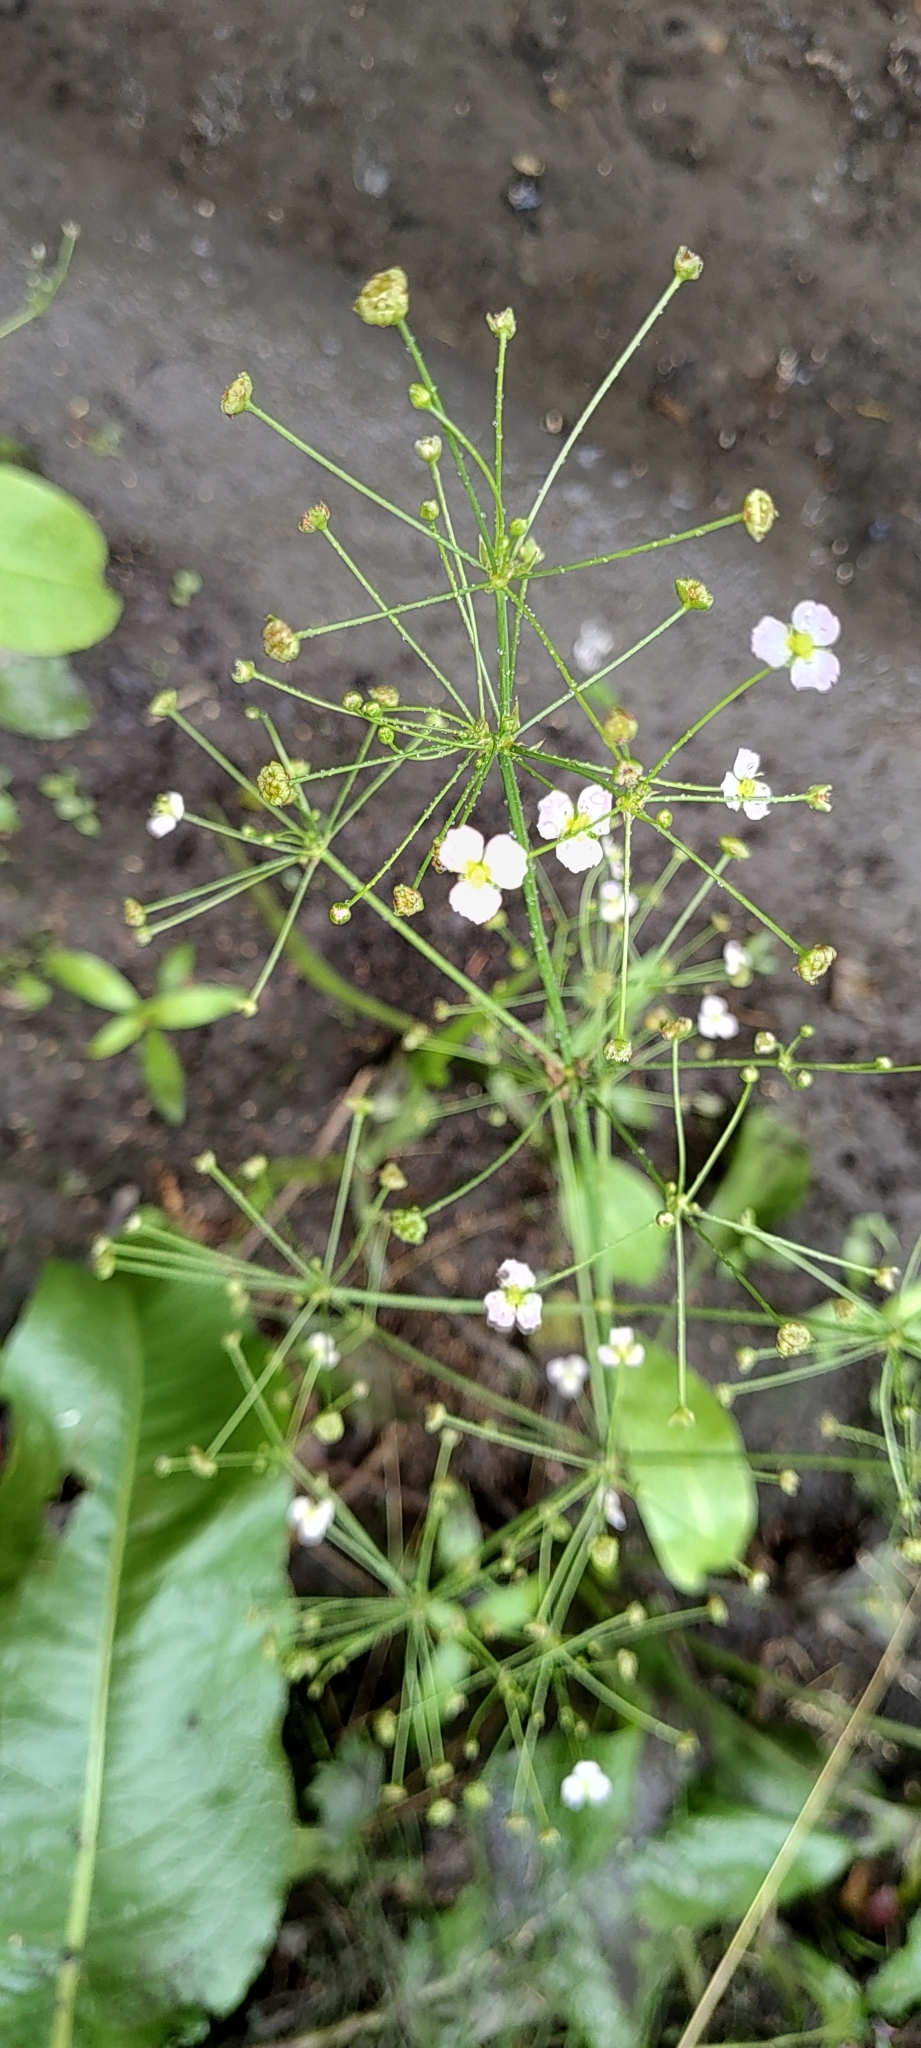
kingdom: Plantae
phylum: Tracheophyta
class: Liliopsida
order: Alismatales
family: Alismataceae
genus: Alisma
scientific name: Alisma plantago-aquatica
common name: Water-plantain
